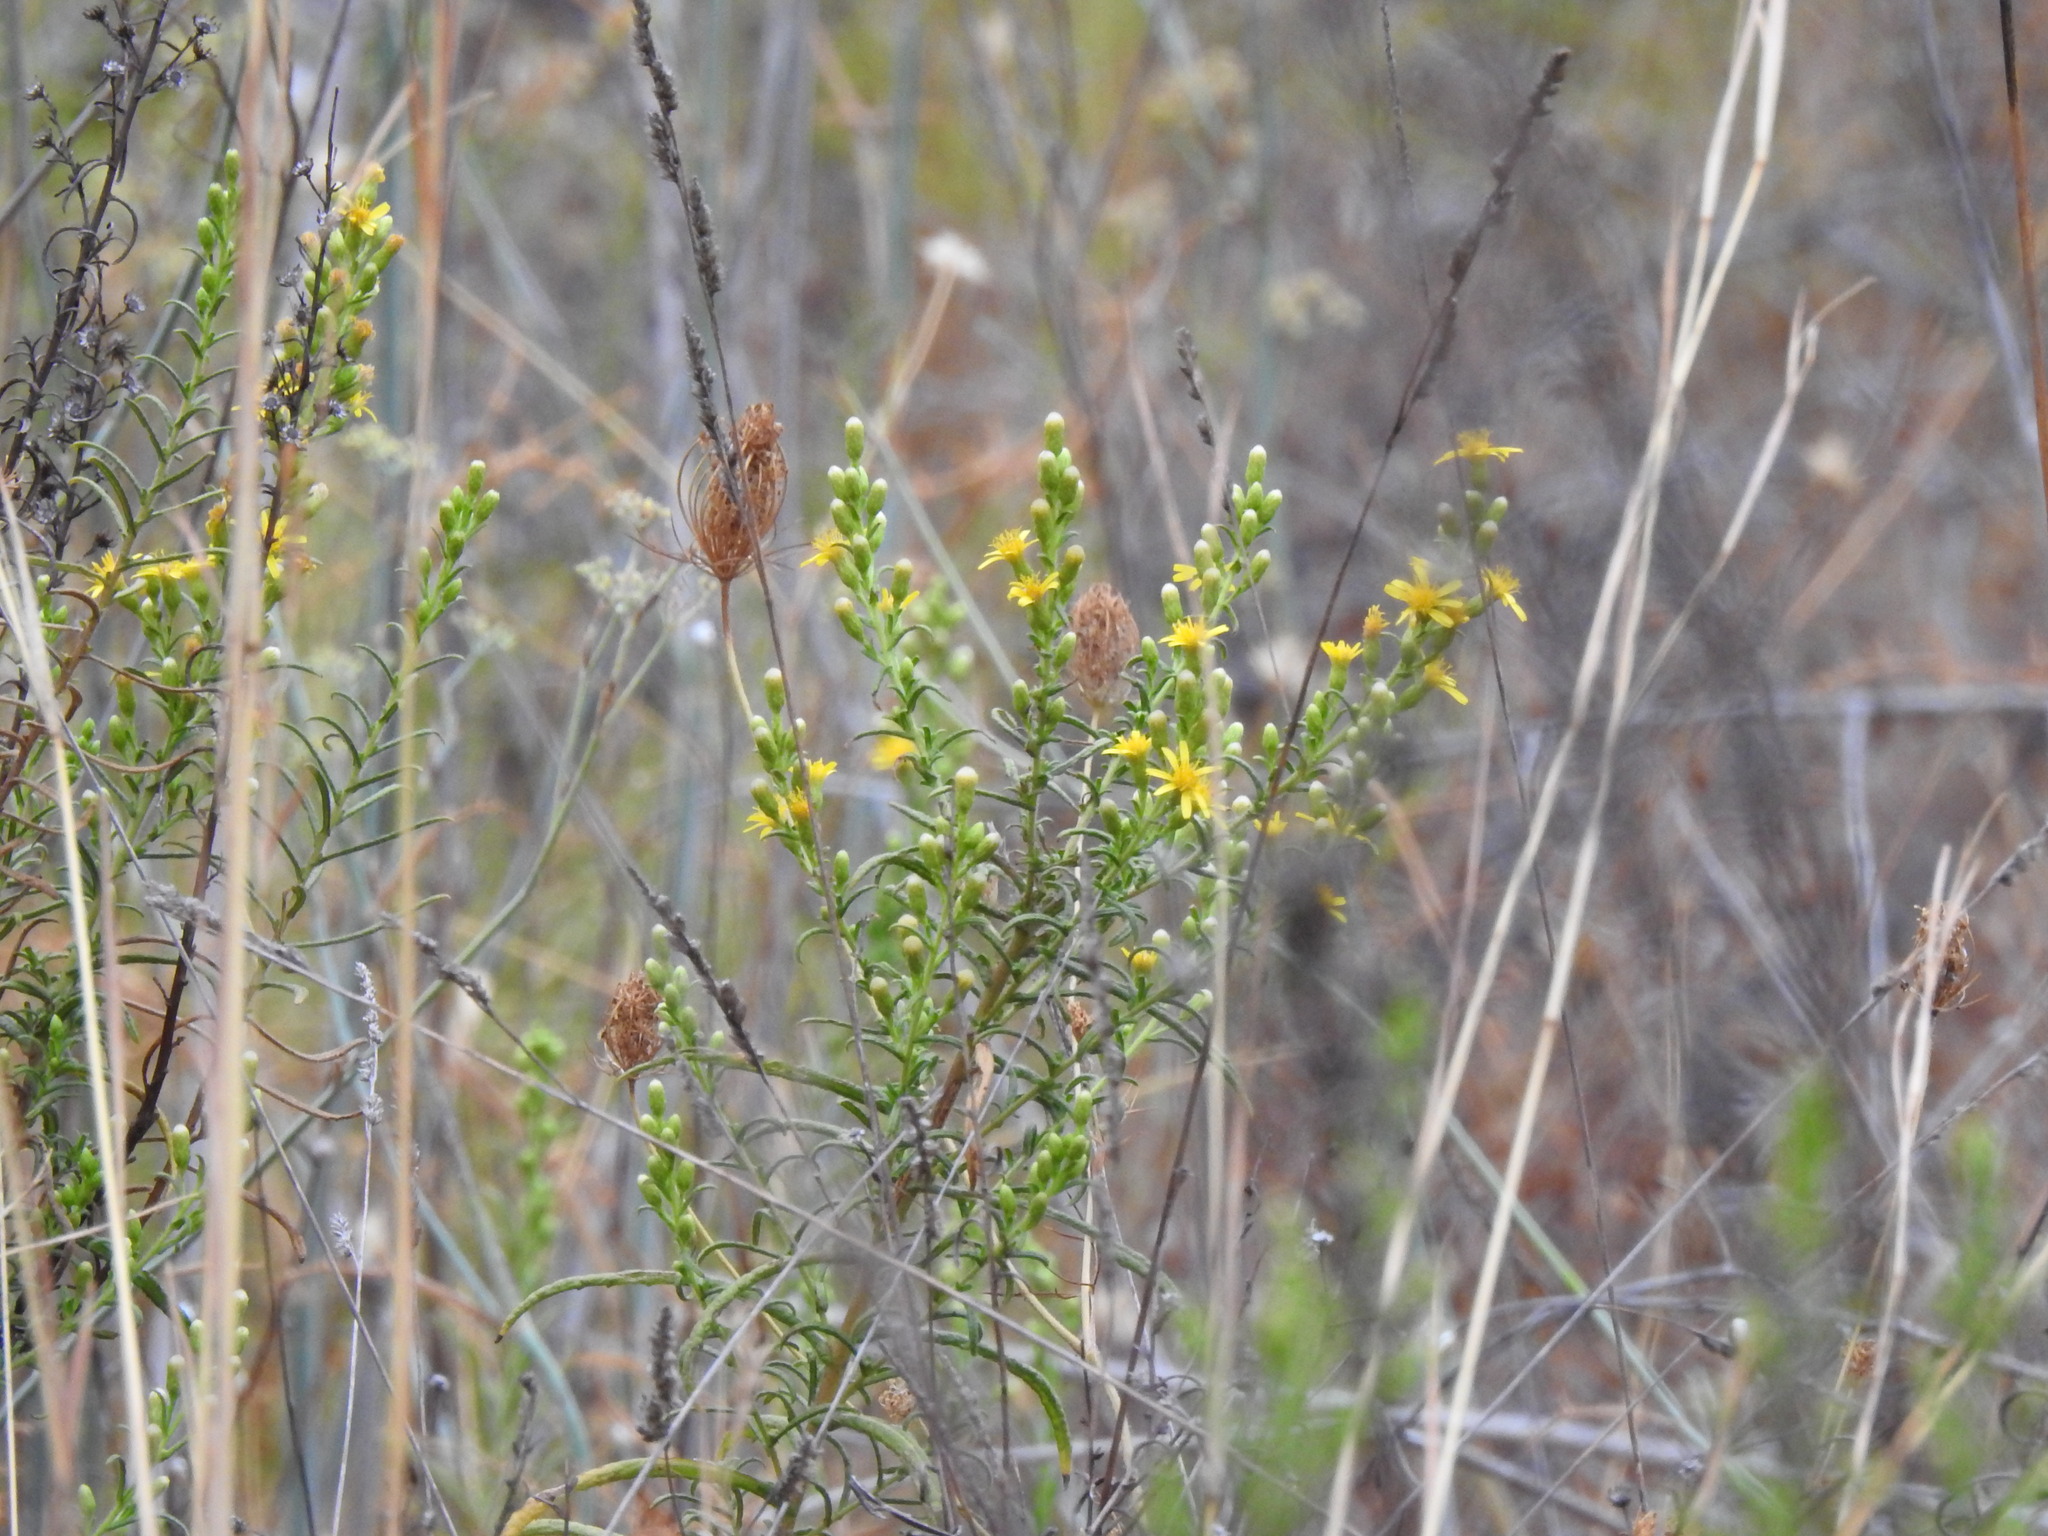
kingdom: Plantae
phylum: Tracheophyta
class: Magnoliopsida
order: Asterales
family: Asteraceae
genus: Dittrichia
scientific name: Dittrichia viscosa
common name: Woody fleabane
